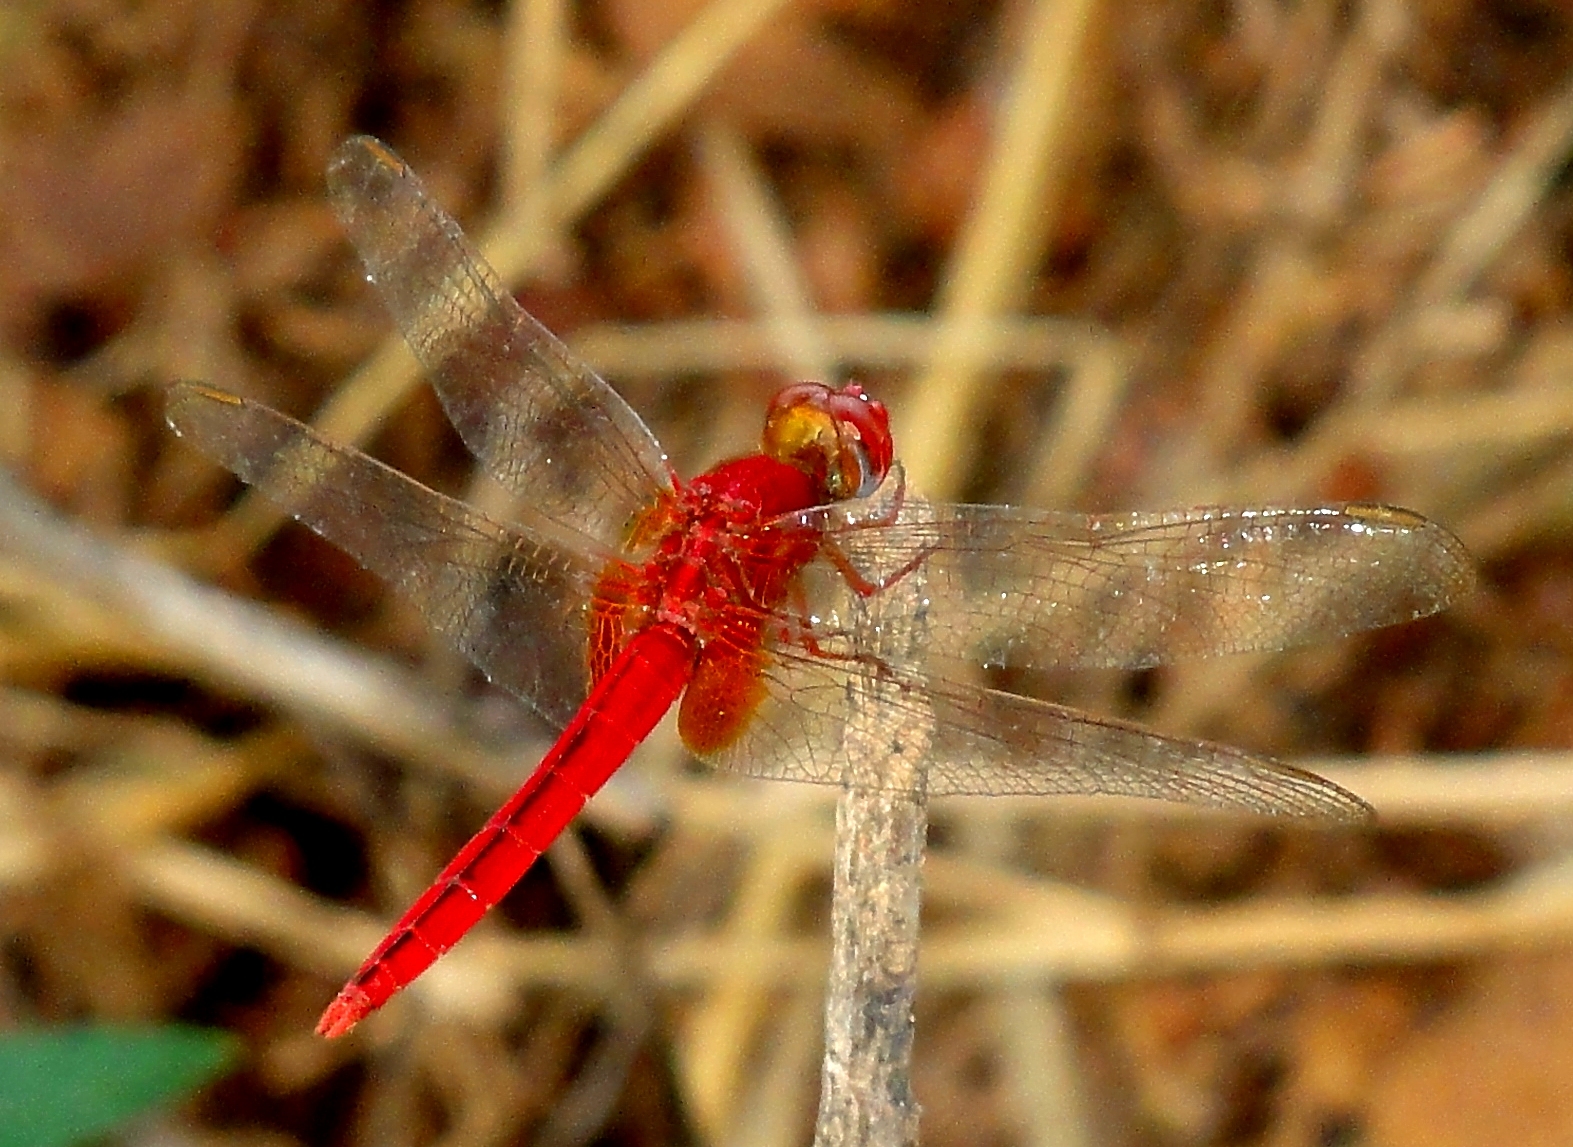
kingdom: Animalia
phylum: Arthropoda
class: Insecta
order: Odonata
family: Libellulidae
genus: Crocothemis
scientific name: Crocothemis servilia
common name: Scarlet skimmer
